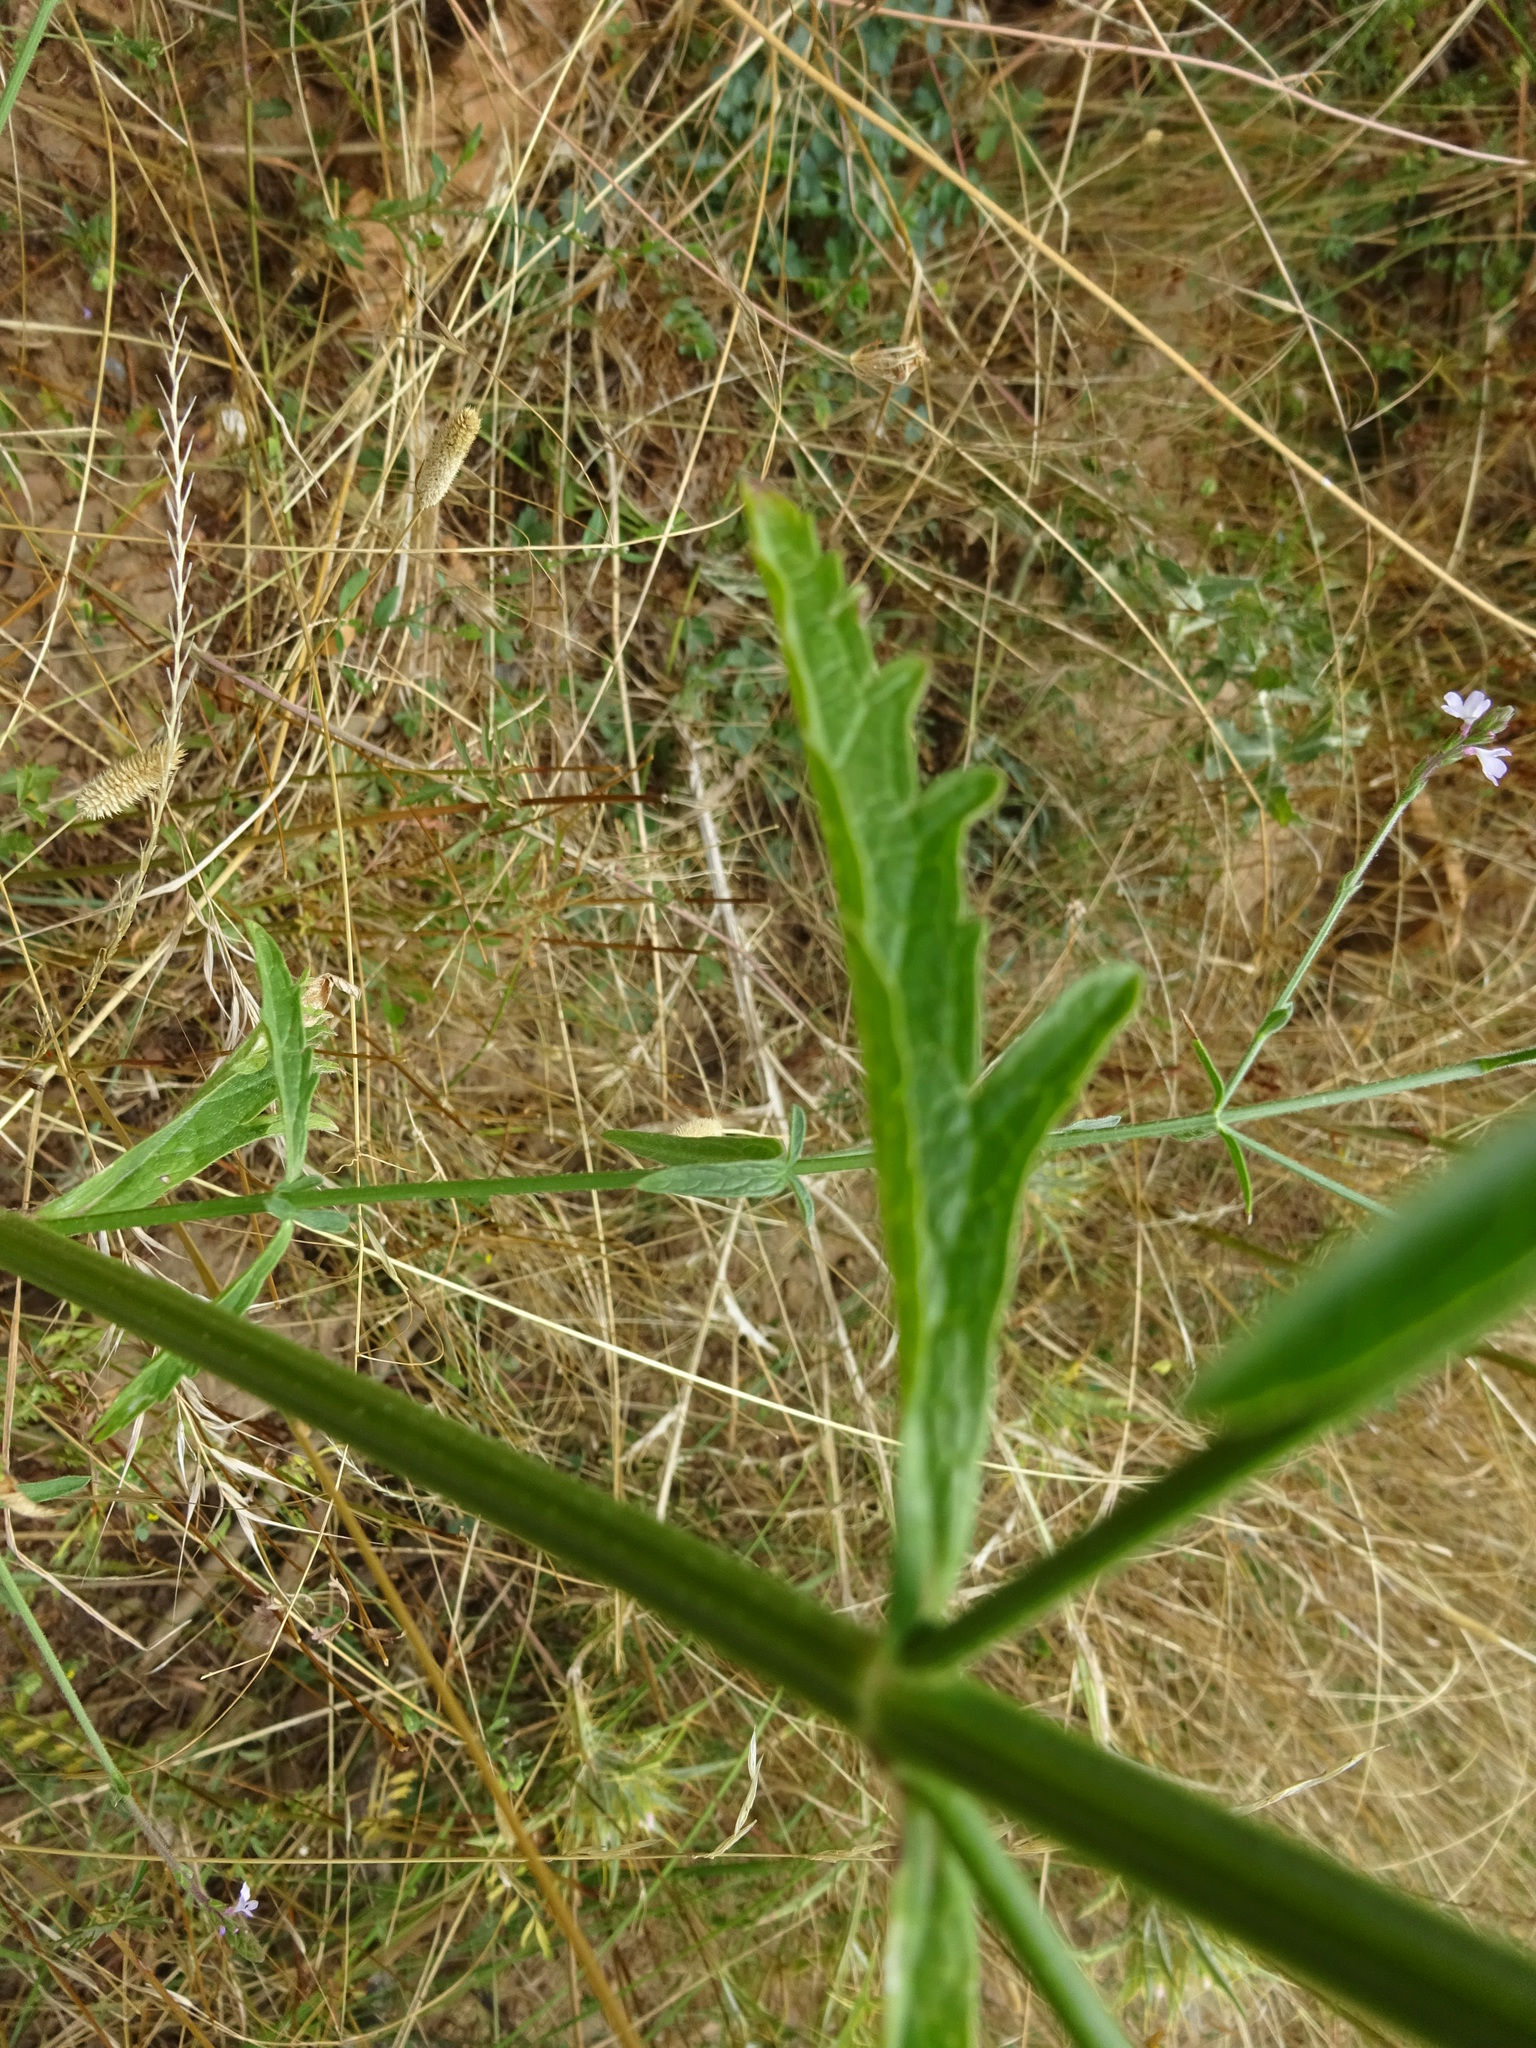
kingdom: Plantae
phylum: Tracheophyta
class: Magnoliopsida
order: Lamiales
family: Verbenaceae
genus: Verbena
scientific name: Verbena officinalis
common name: Vervain
